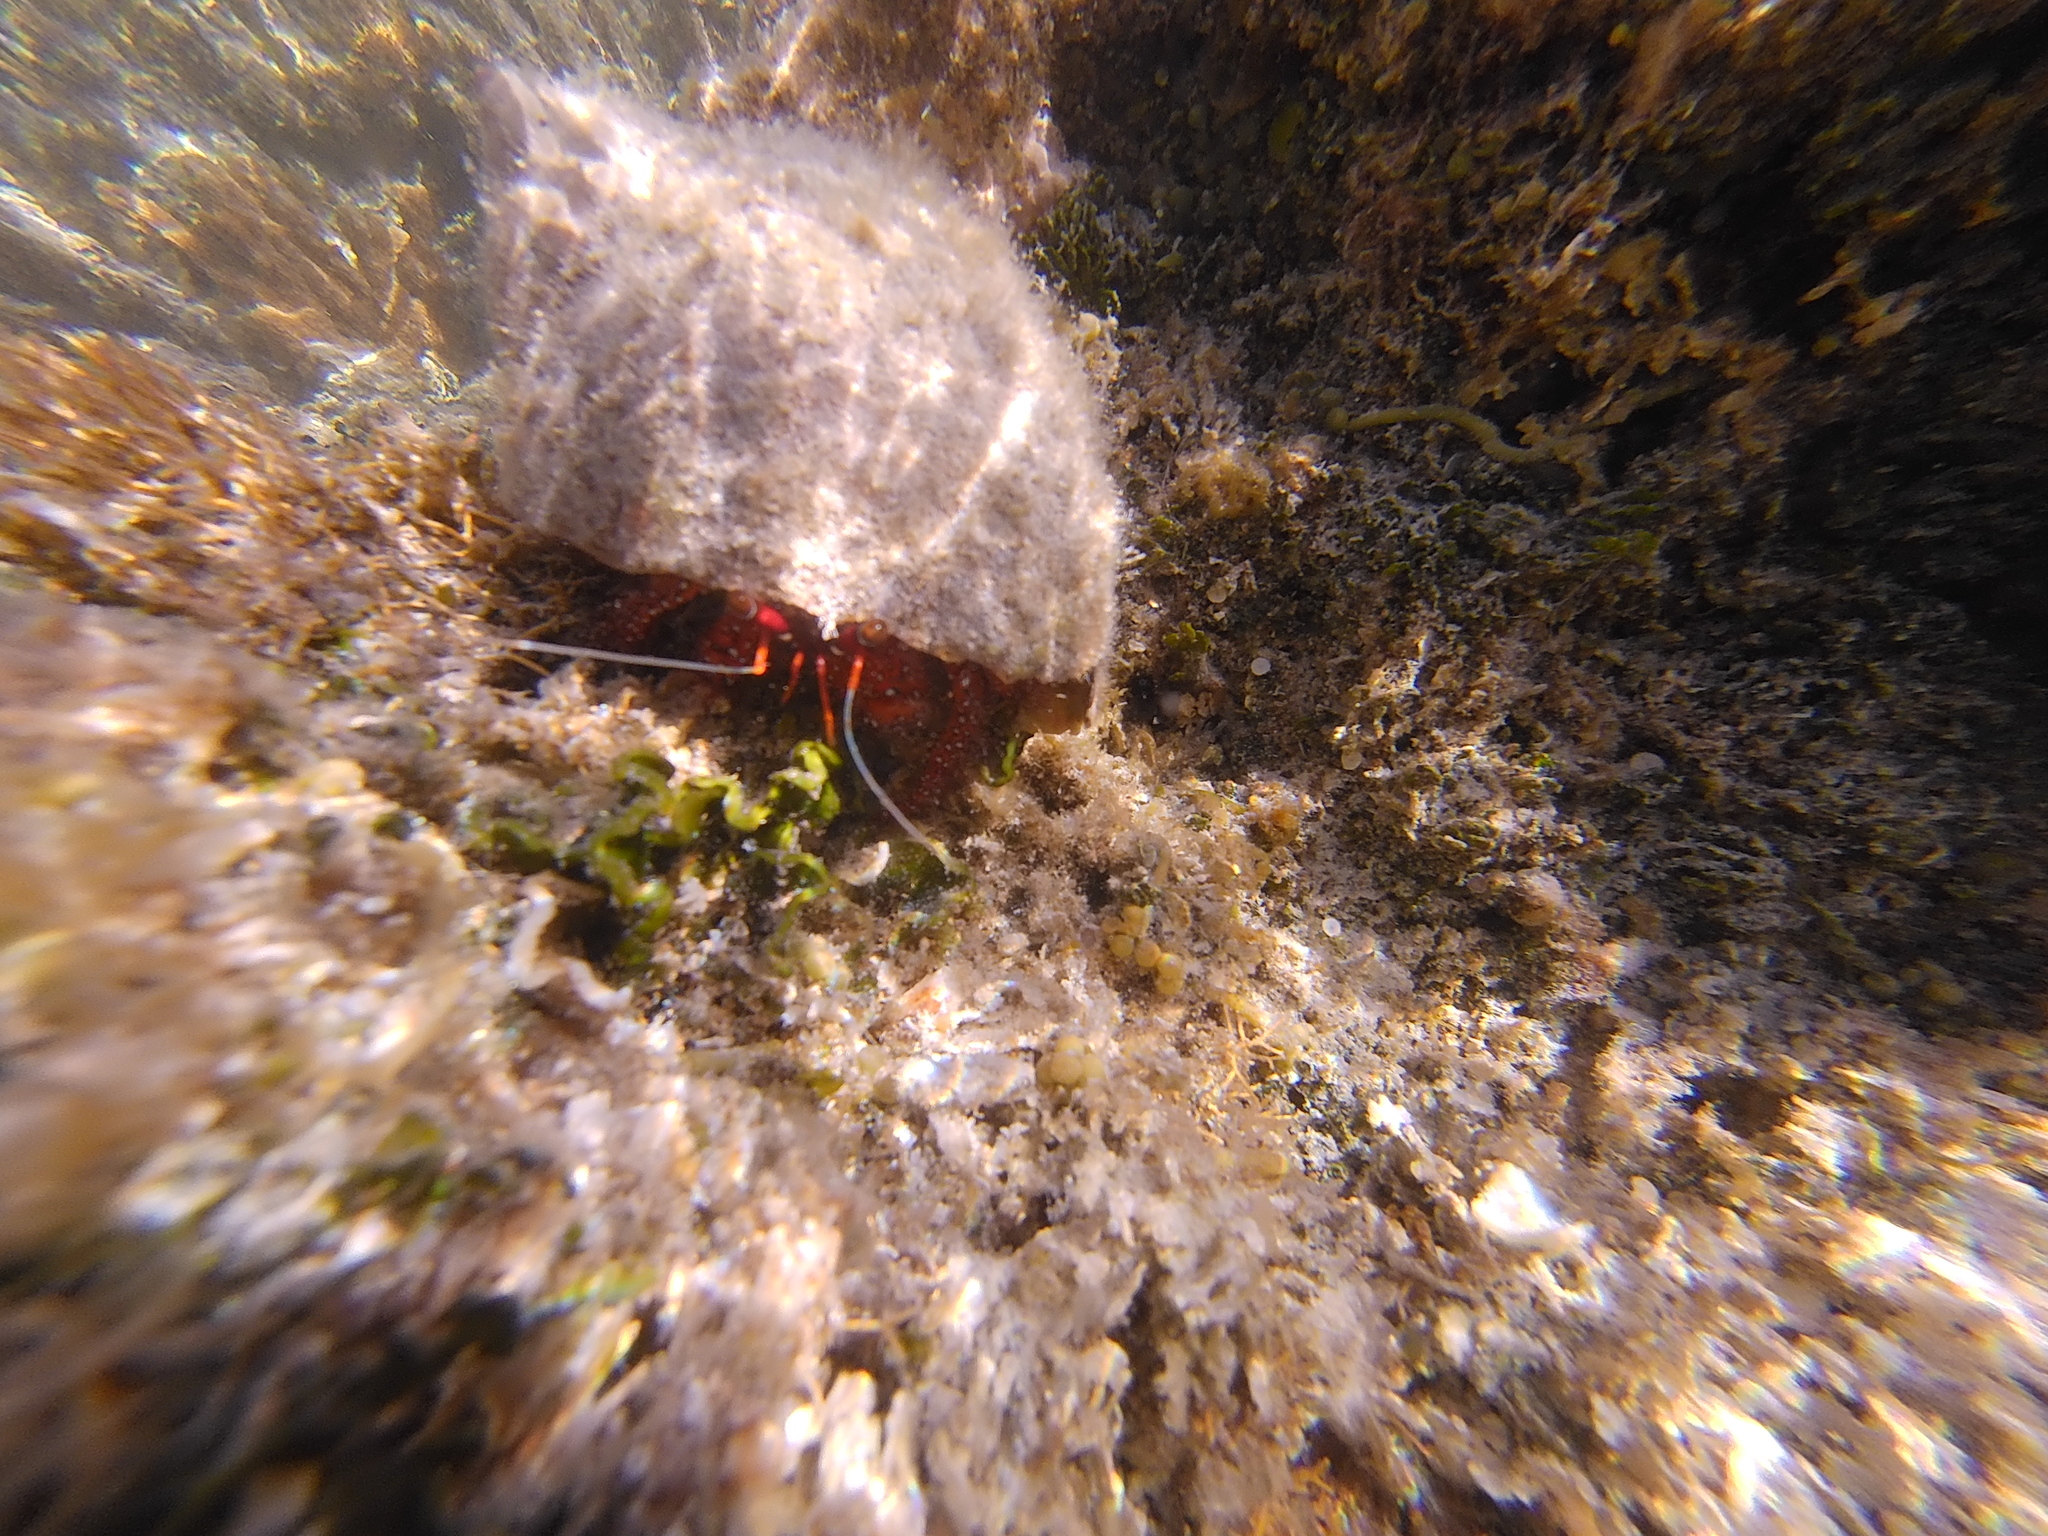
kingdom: Animalia
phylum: Arthropoda
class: Malacostraca
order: Decapoda
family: Diogenidae
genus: Dardanus
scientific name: Dardanus megistos
